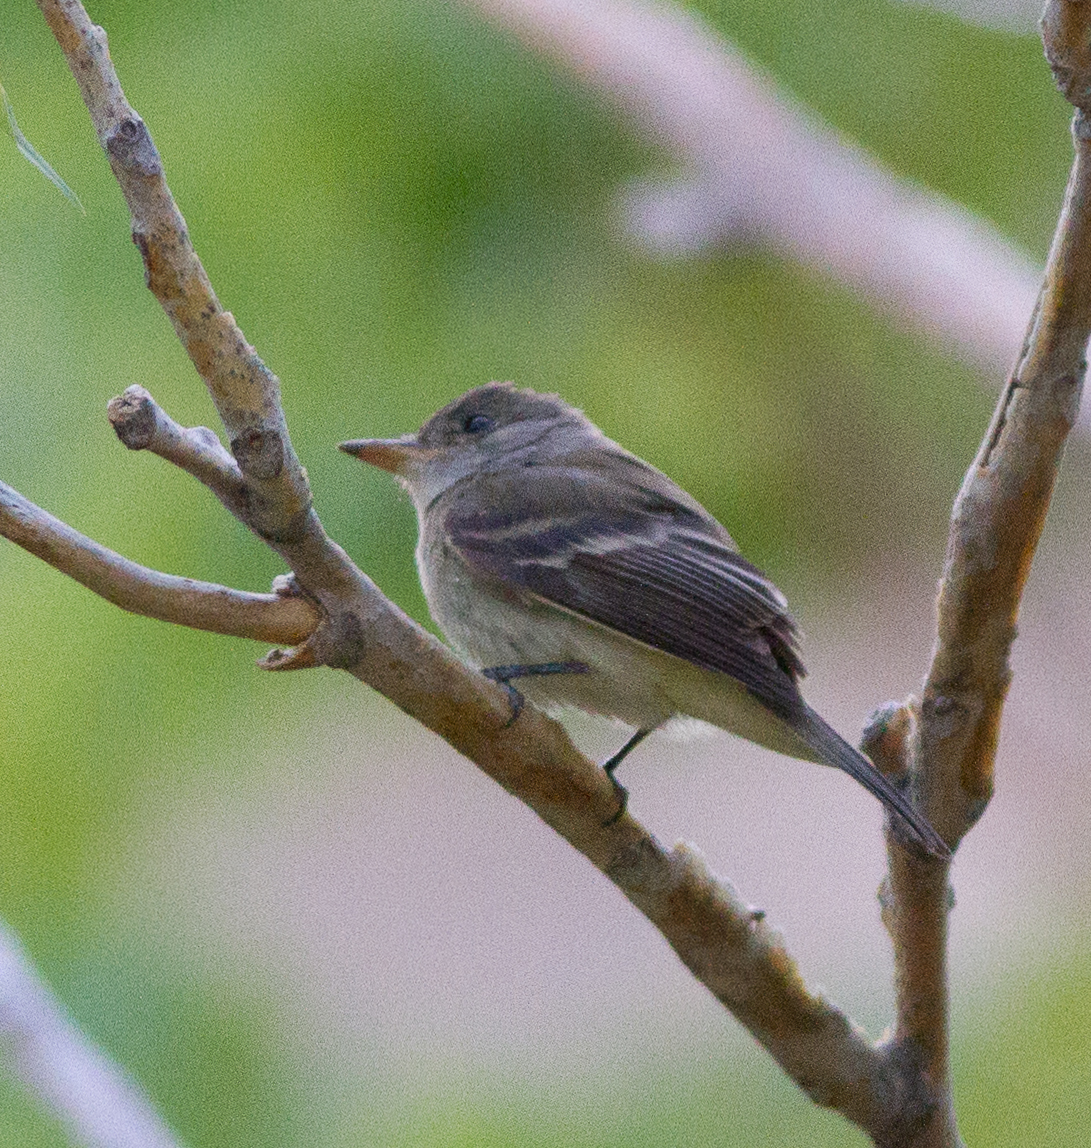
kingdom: Animalia
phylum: Chordata
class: Aves
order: Passeriformes
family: Tyrannidae
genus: Empidonax
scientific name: Empidonax traillii
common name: Willow flycatcher
